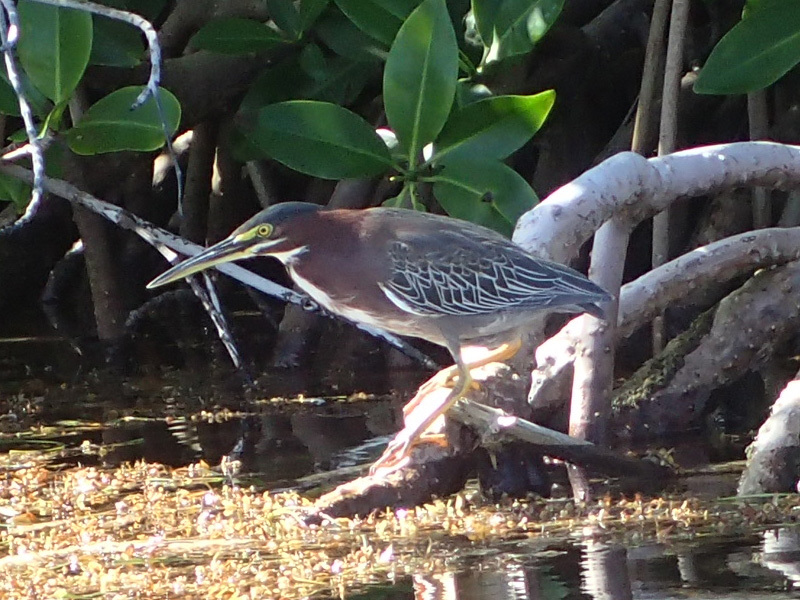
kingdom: Animalia
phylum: Chordata
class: Aves
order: Pelecaniformes
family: Ardeidae
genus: Butorides
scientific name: Butorides virescens
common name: Green heron
